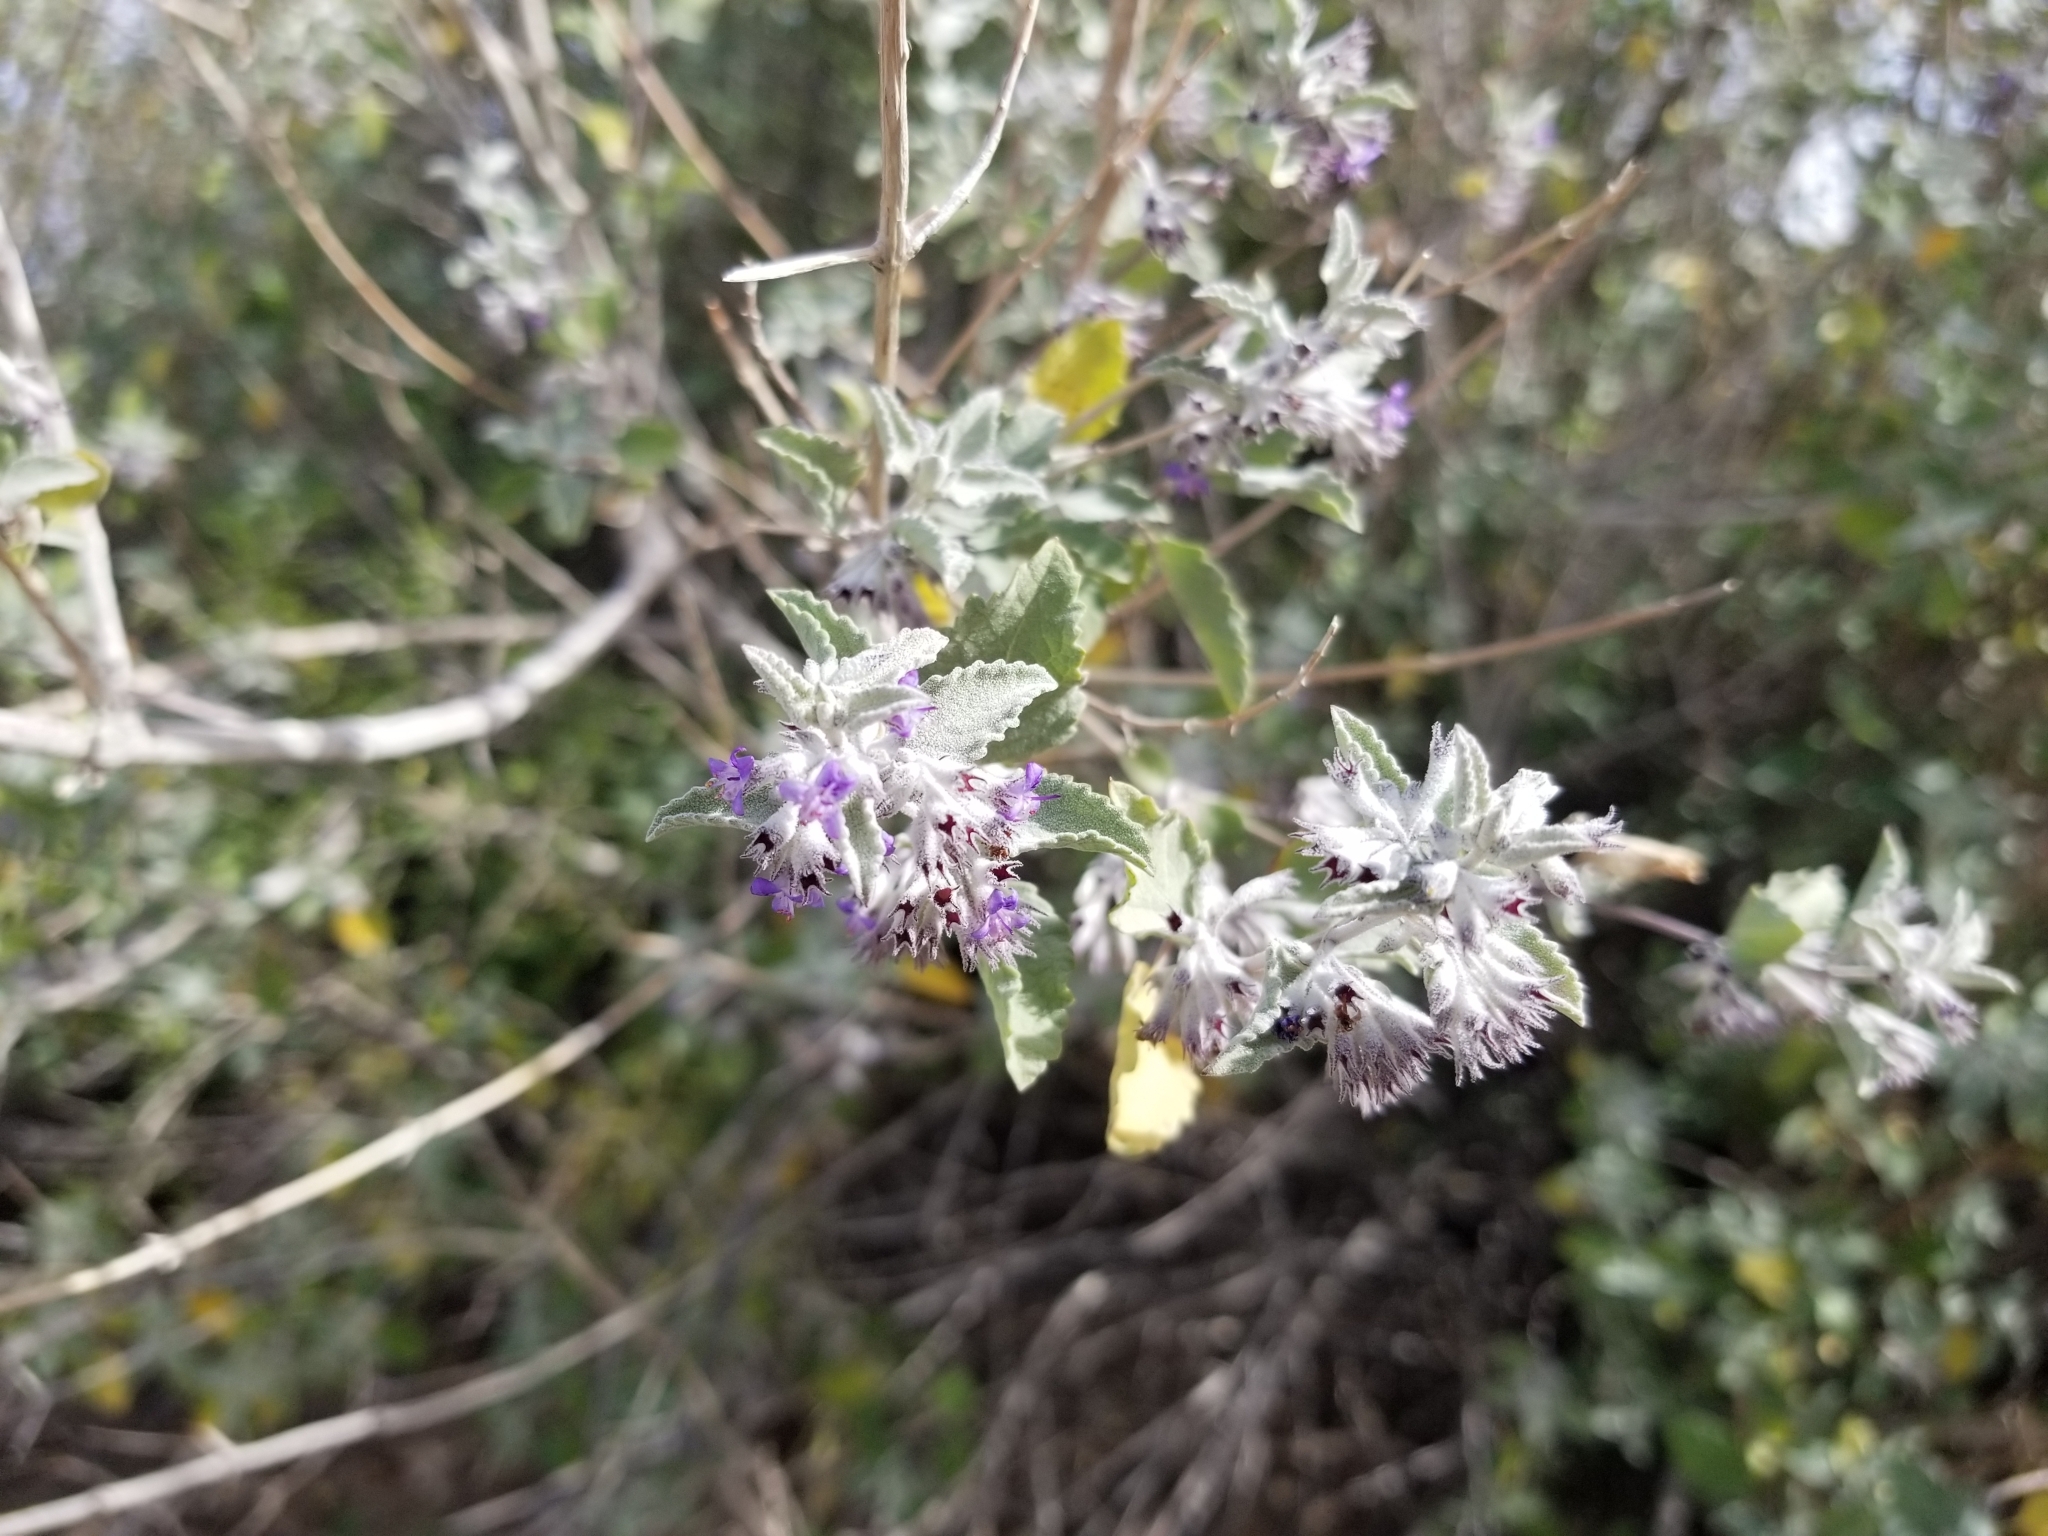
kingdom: Plantae
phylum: Tracheophyta
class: Magnoliopsida
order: Lamiales
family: Lamiaceae
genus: Condea
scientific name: Condea emoryi
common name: Chia
